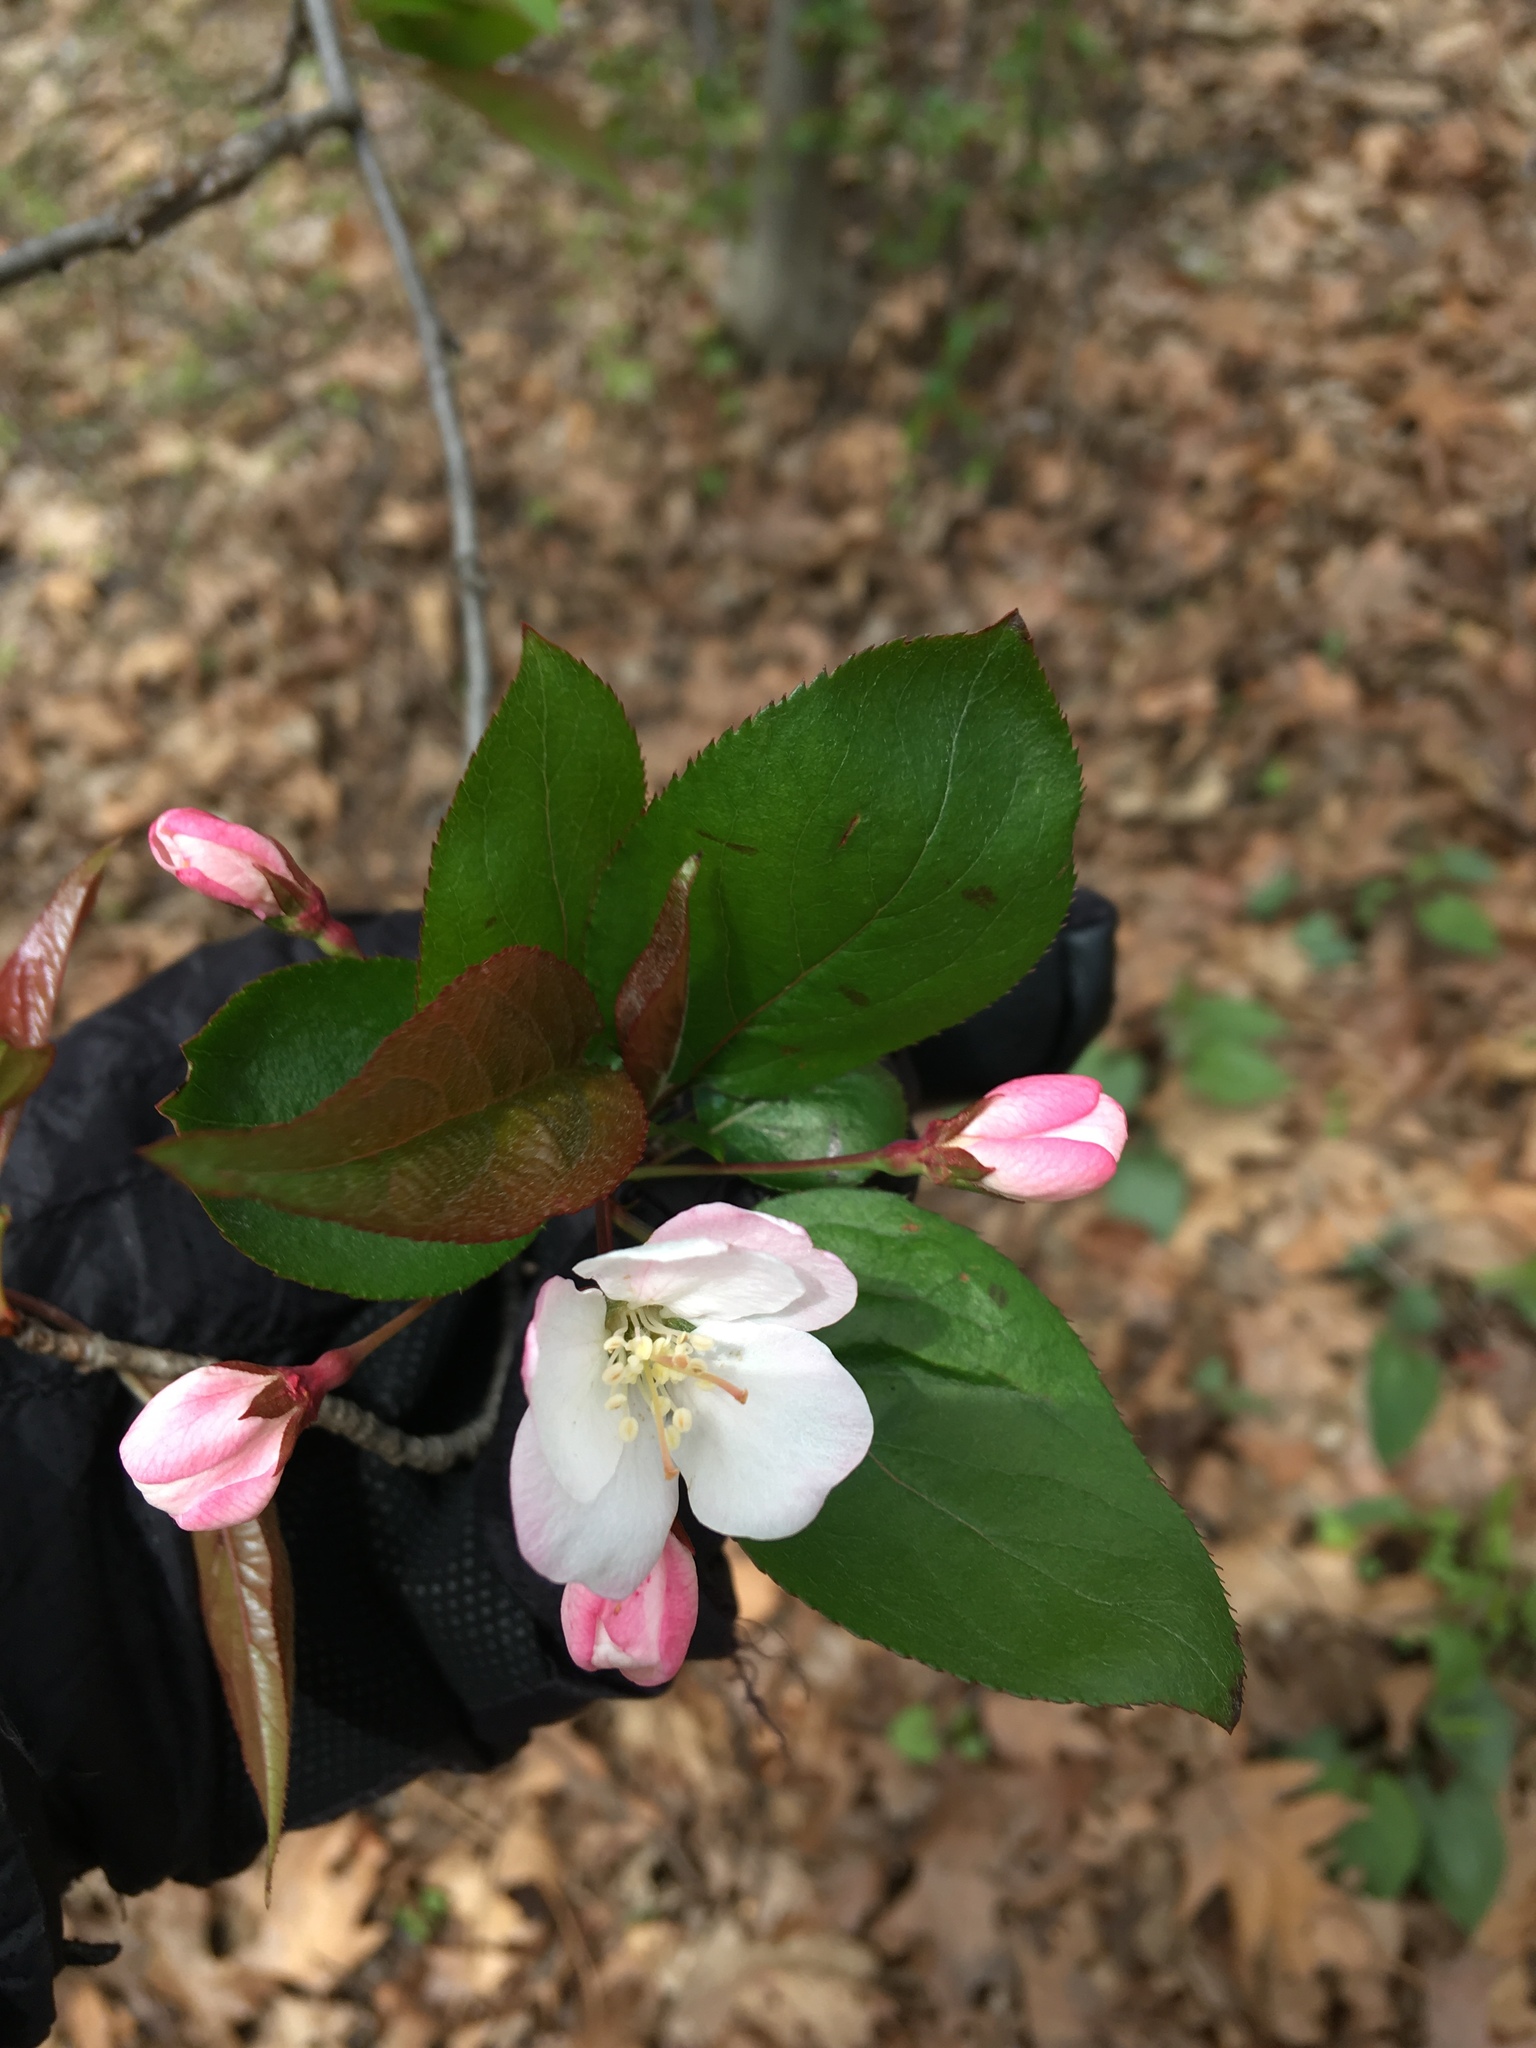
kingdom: Plantae
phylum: Tracheophyta
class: Magnoliopsida
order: Rosales
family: Rosaceae
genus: Malus
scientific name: Malus hupehensis
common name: Chinese crab apple
